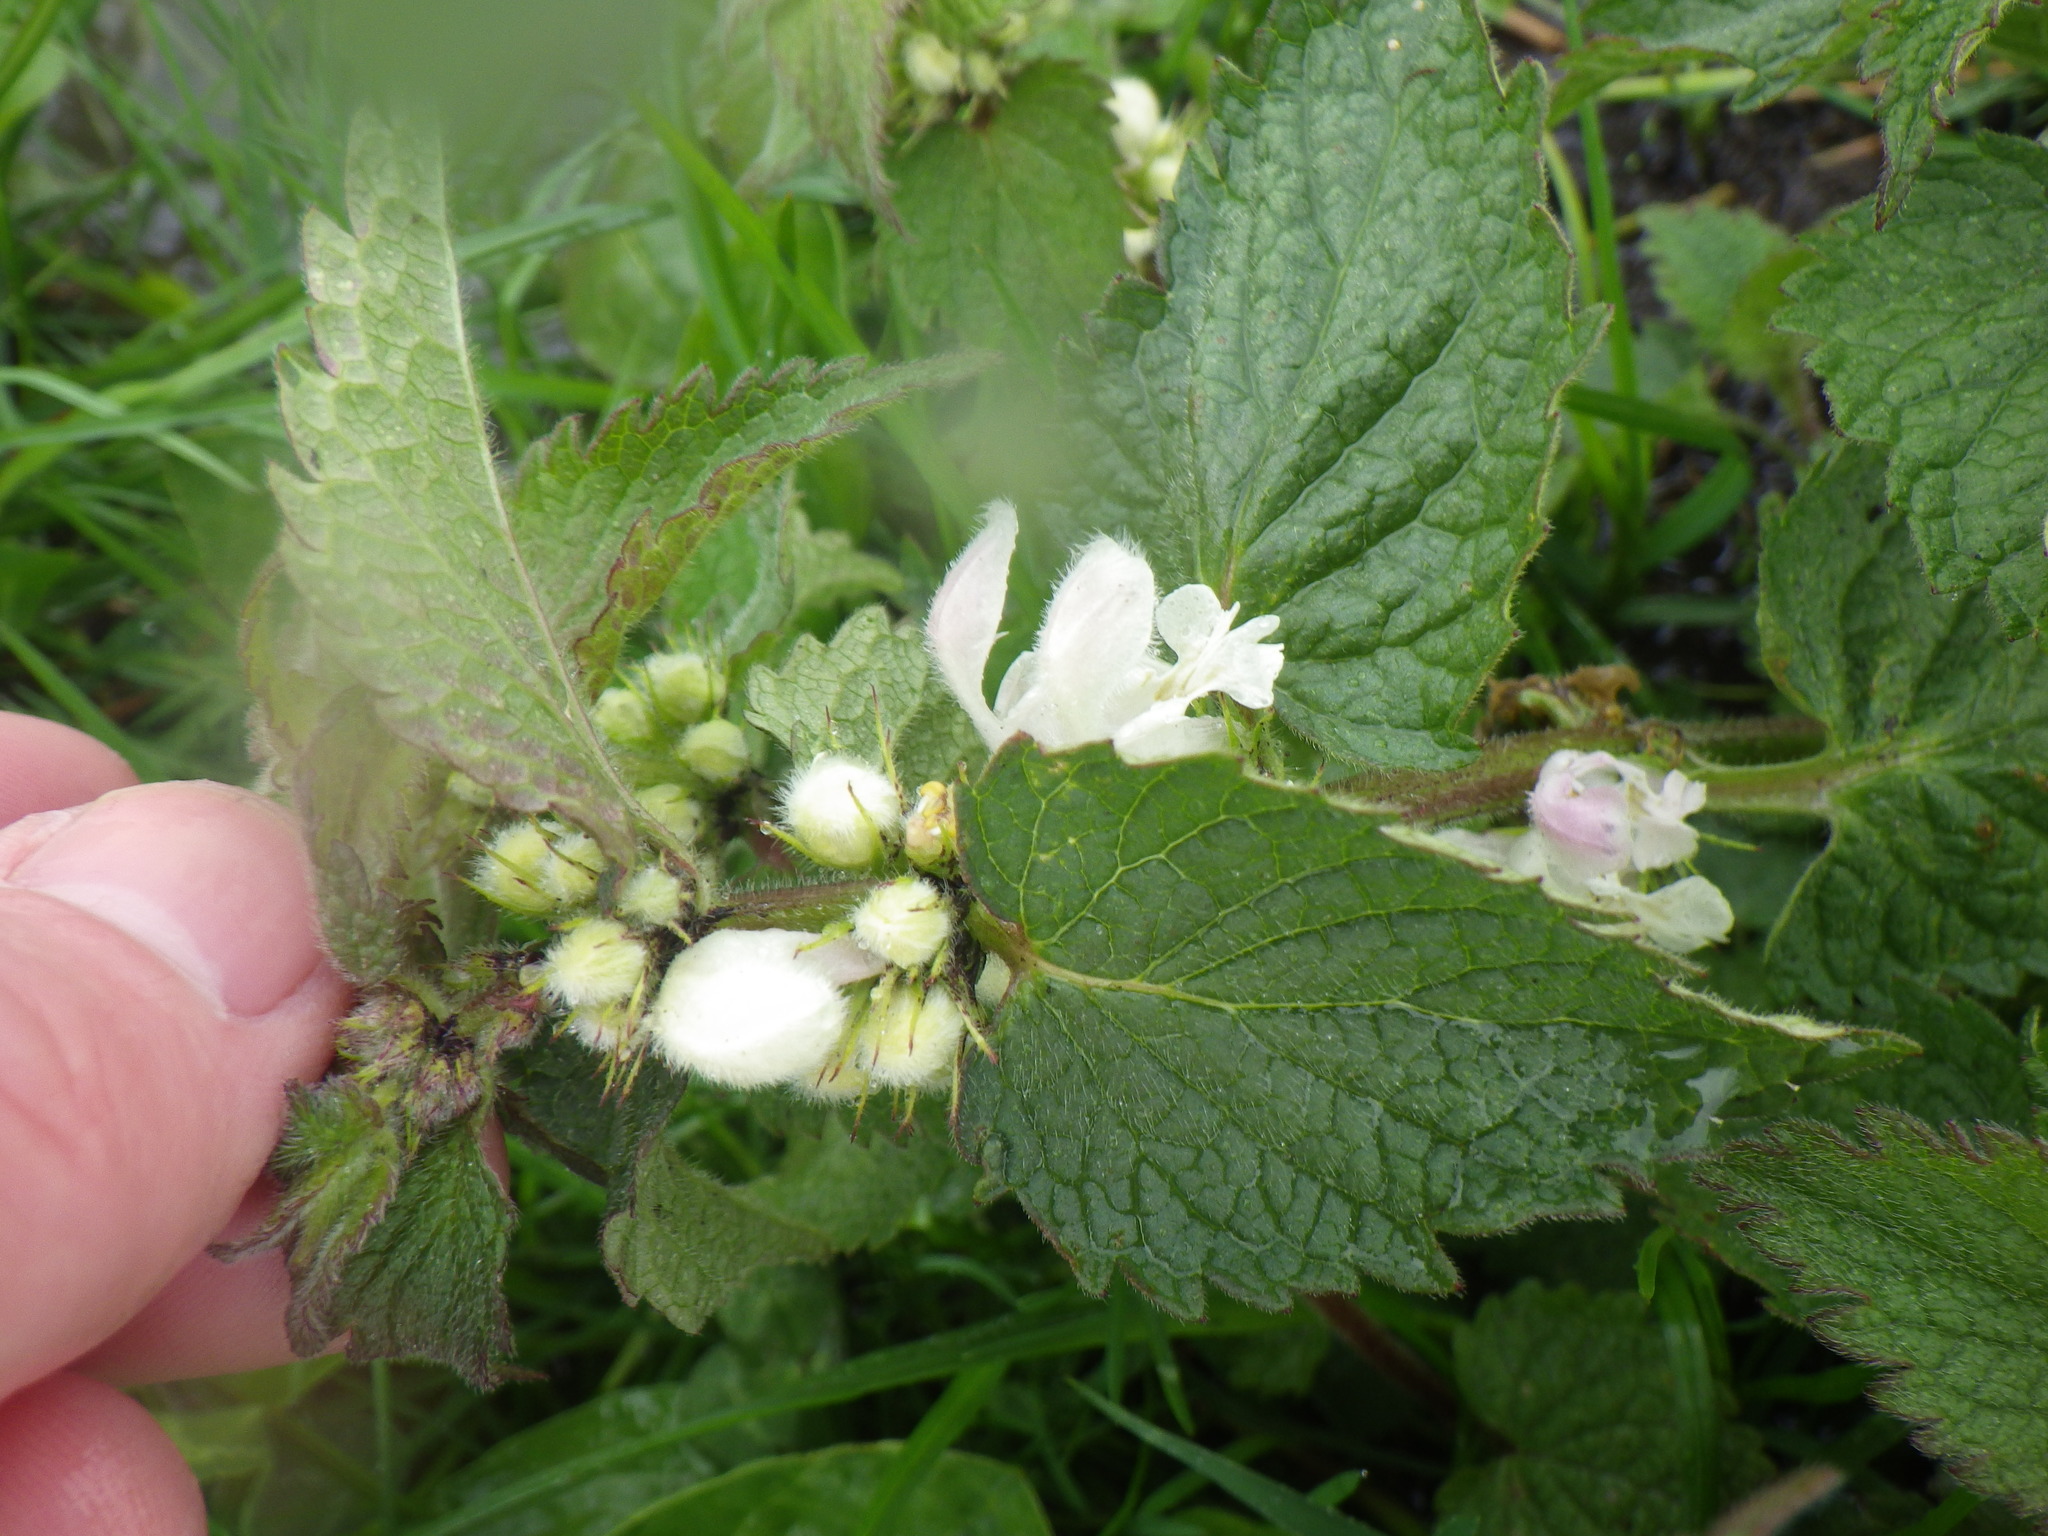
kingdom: Plantae
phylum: Tracheophyta
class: Magnoliopsida
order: Lamiales
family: Lamiaceae
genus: Lamium
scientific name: Lamium album
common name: White dead-nettle
